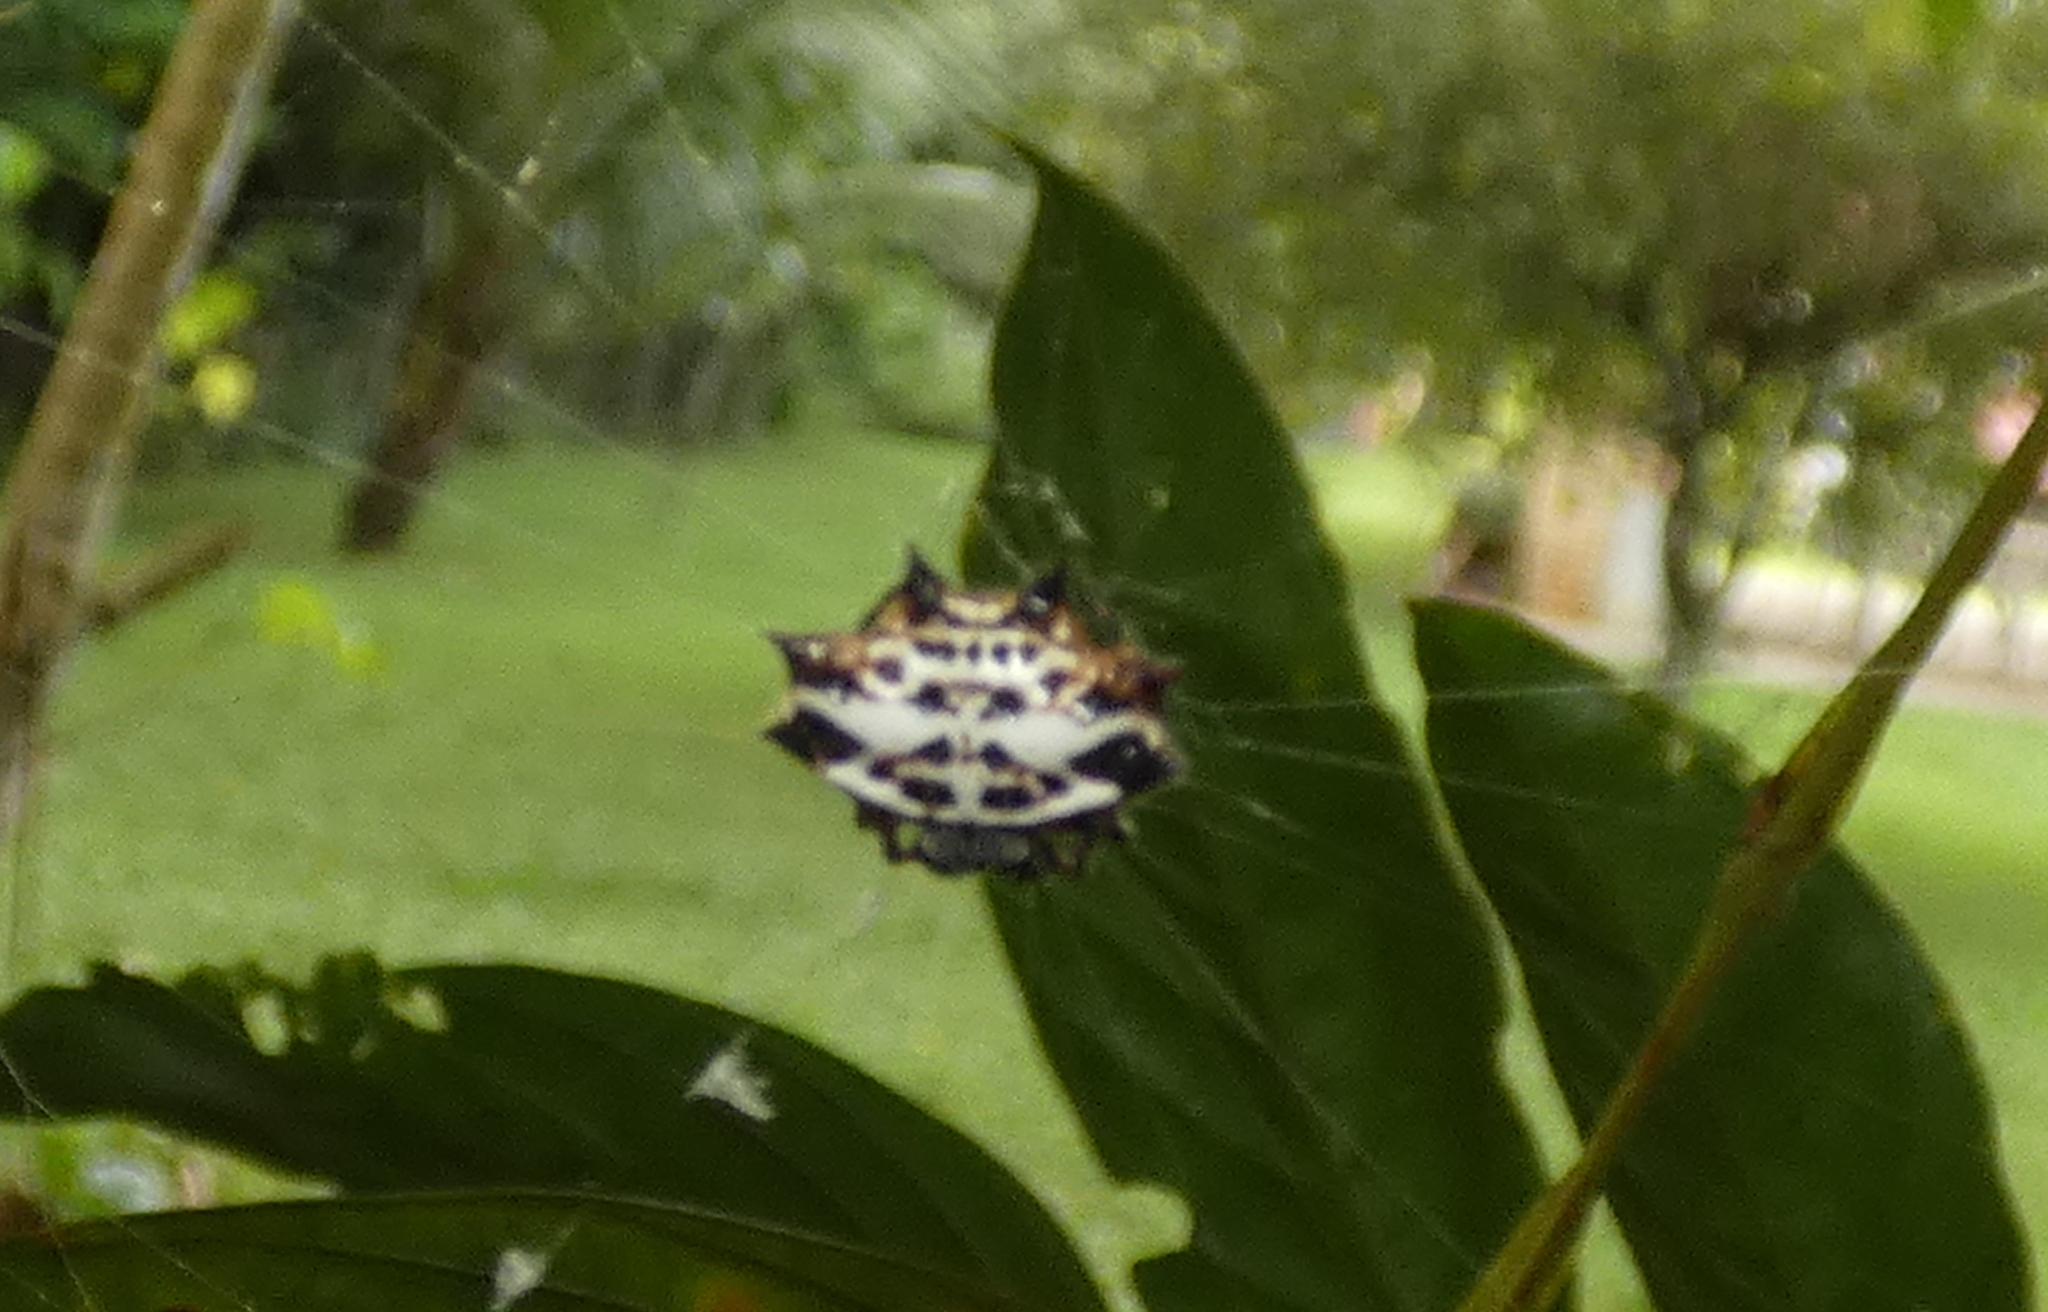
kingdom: Animalia
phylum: Arthropoda
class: Arachnida
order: Araneae
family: Araneidae
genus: Gasteracantha
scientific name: Gasteracantha cancriformis
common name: Orb weavers
